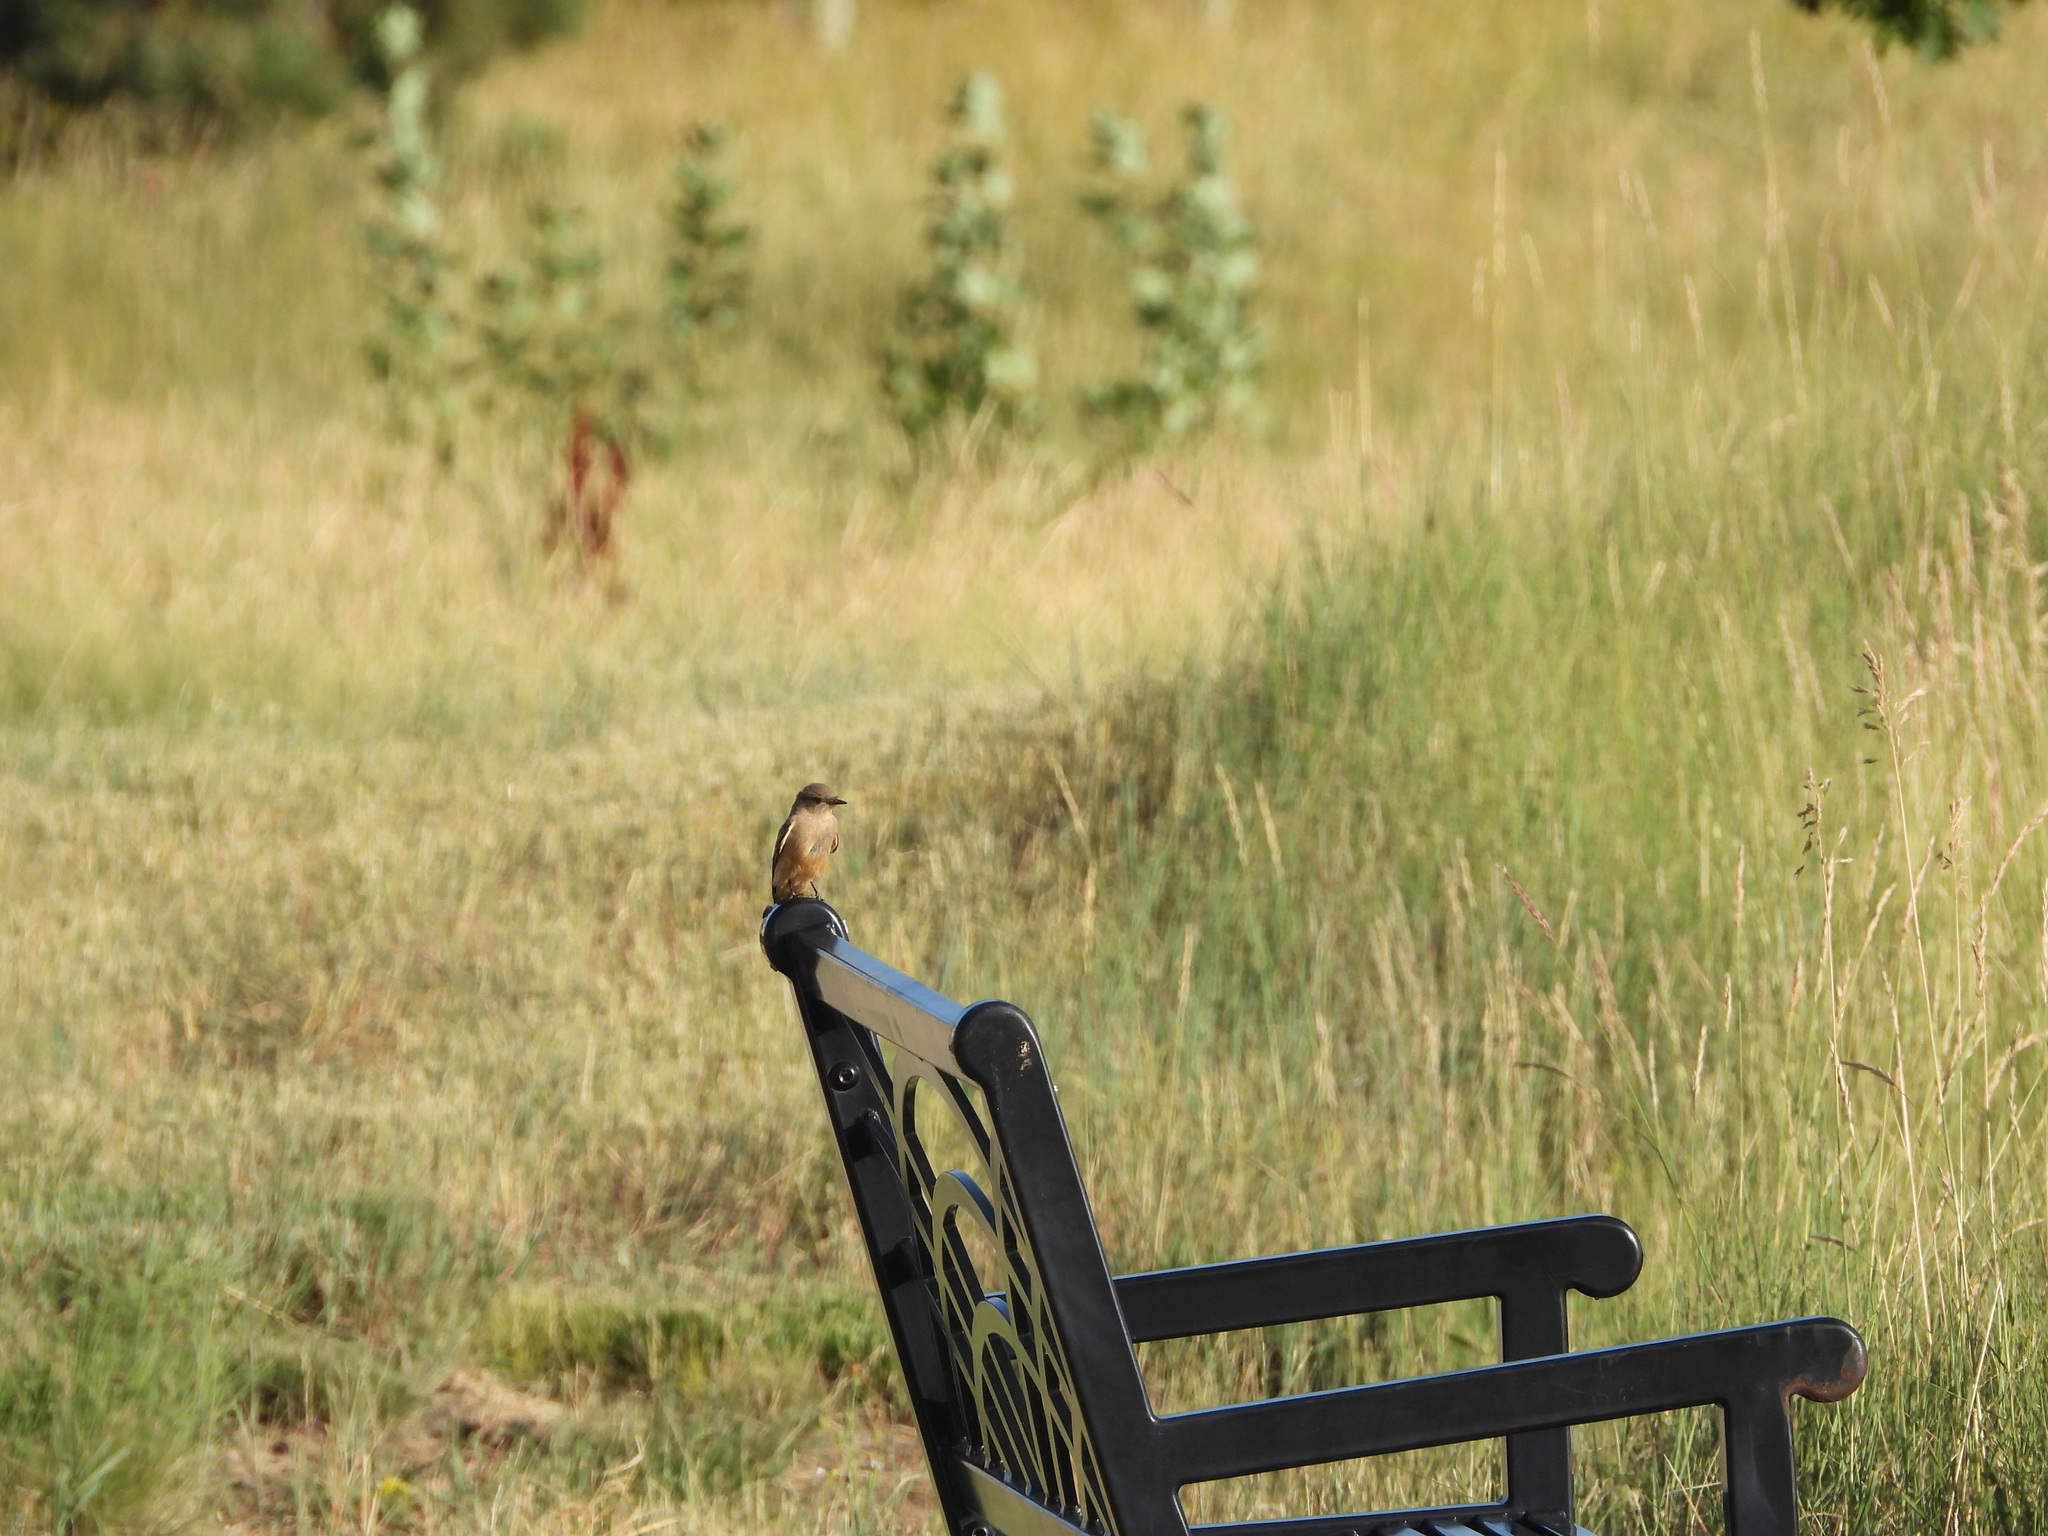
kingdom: Animalia
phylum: Chordata
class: Aves
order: Passeriformes
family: Tyrannidae
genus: Sayornis
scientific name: Sayornis saya
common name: Say's phoebe
